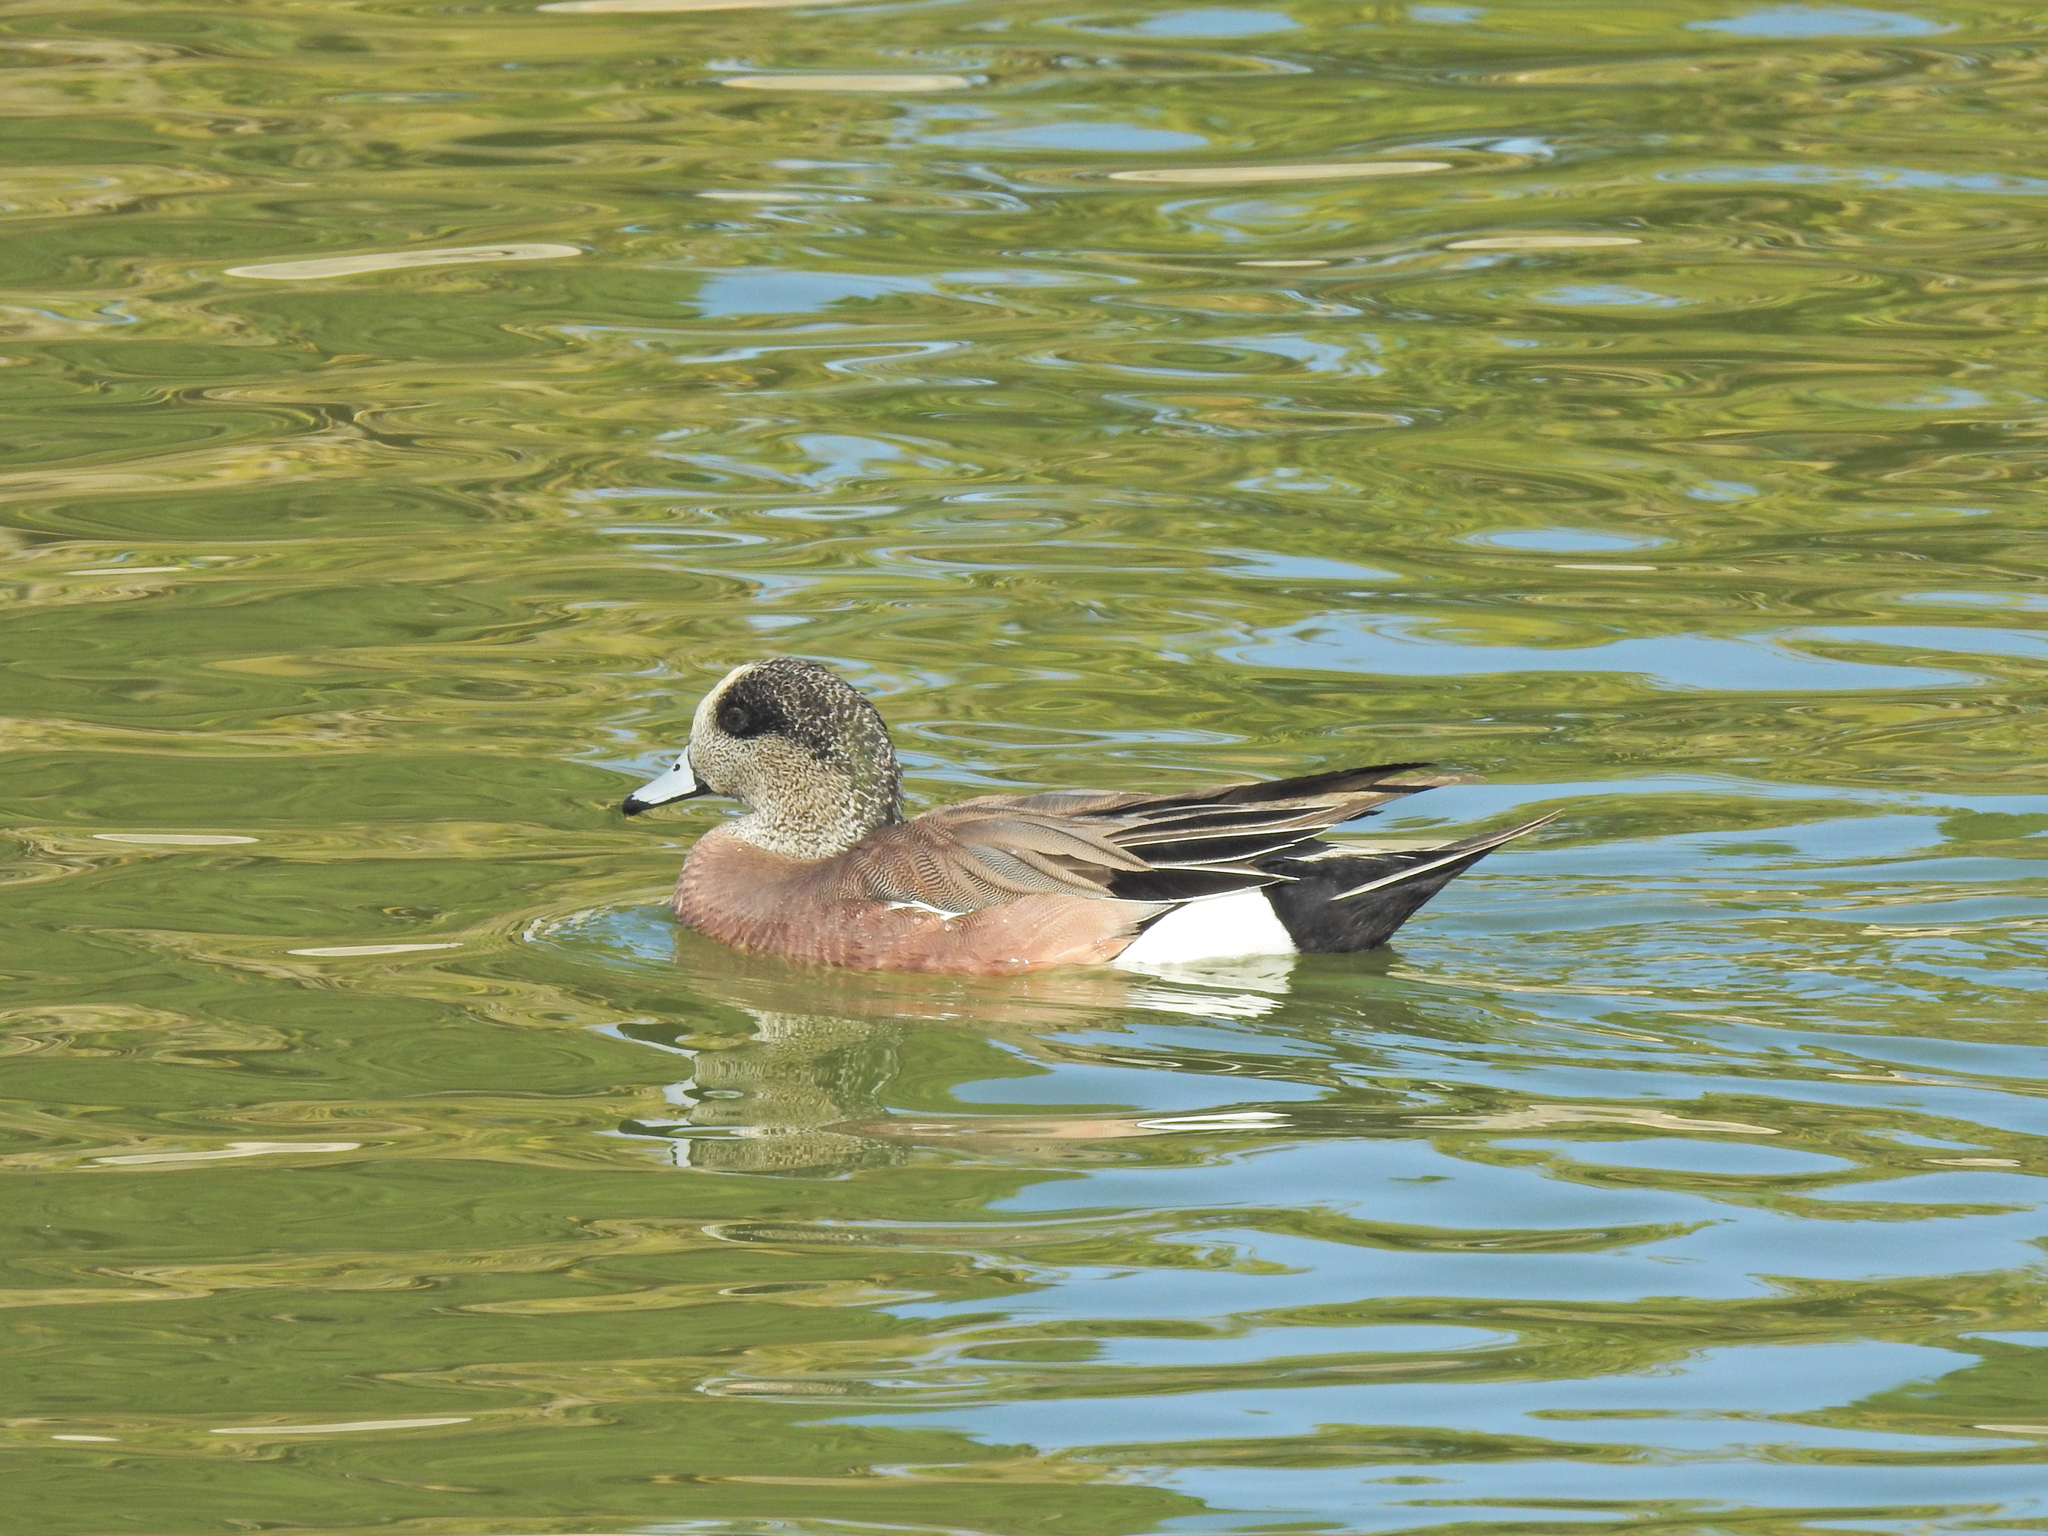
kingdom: Animalia
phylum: Chordata
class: Aves
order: Anseriformes
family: Anatidae
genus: Mareca
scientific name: Mareca americana
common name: American wigeon
